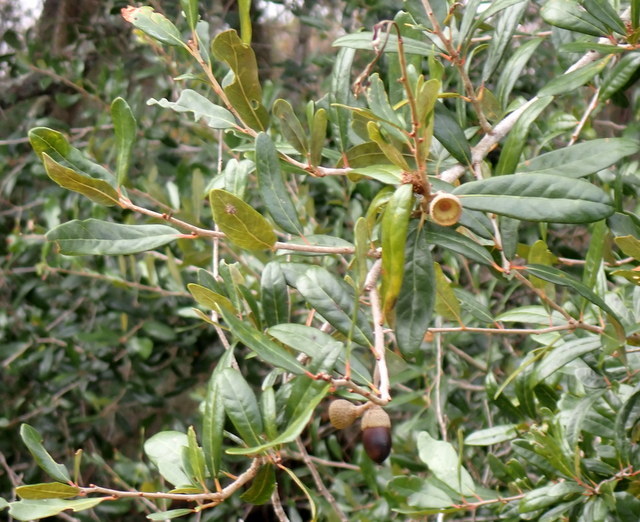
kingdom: Plantae
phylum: Tracheophyta
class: Magnoliopsida
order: Fagales
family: Fagaceae
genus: Quercus
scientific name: Quercus virginiana
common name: Southern live oak
